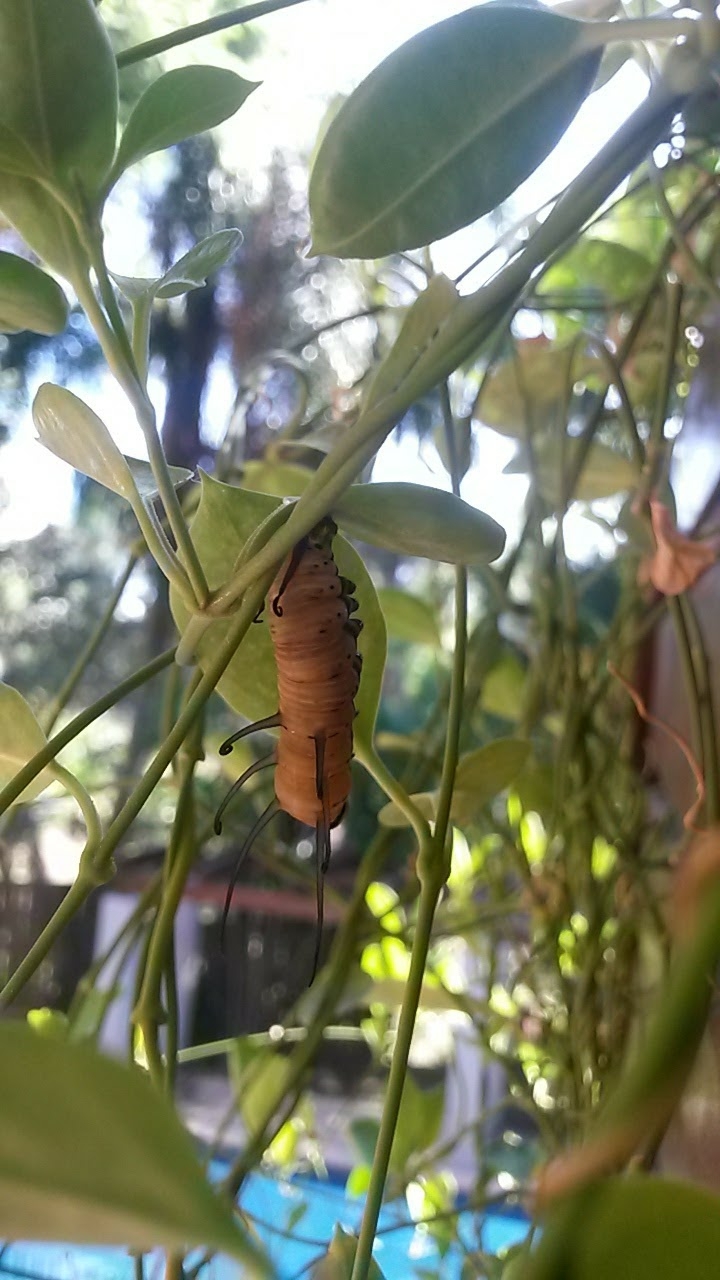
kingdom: Animalia
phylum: Arthropoda
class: Insecta
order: Lepidoptera
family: Nymphalidae
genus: Euploea
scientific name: Euploea core
